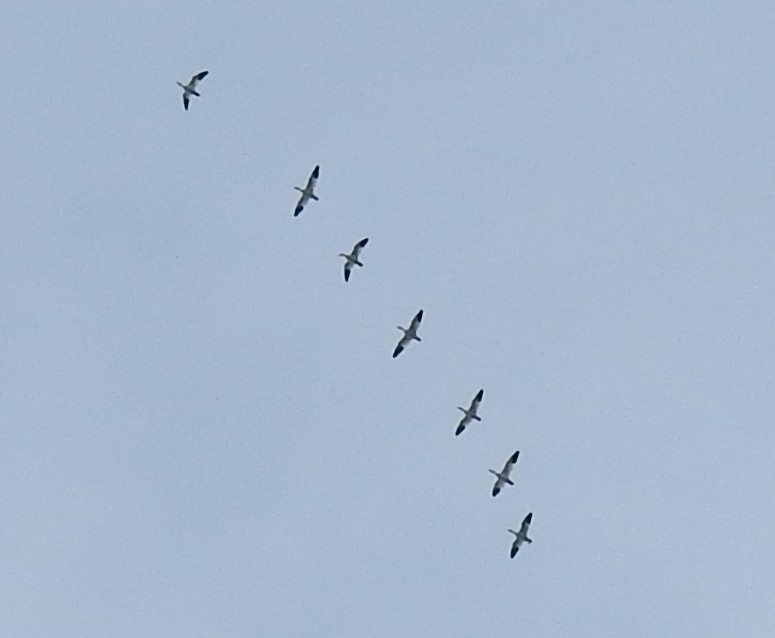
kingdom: Animalia
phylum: Chordata
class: Aves
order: Anseriformes
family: Anatidae
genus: Anser
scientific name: Anser caerulescens
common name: Snow goose
